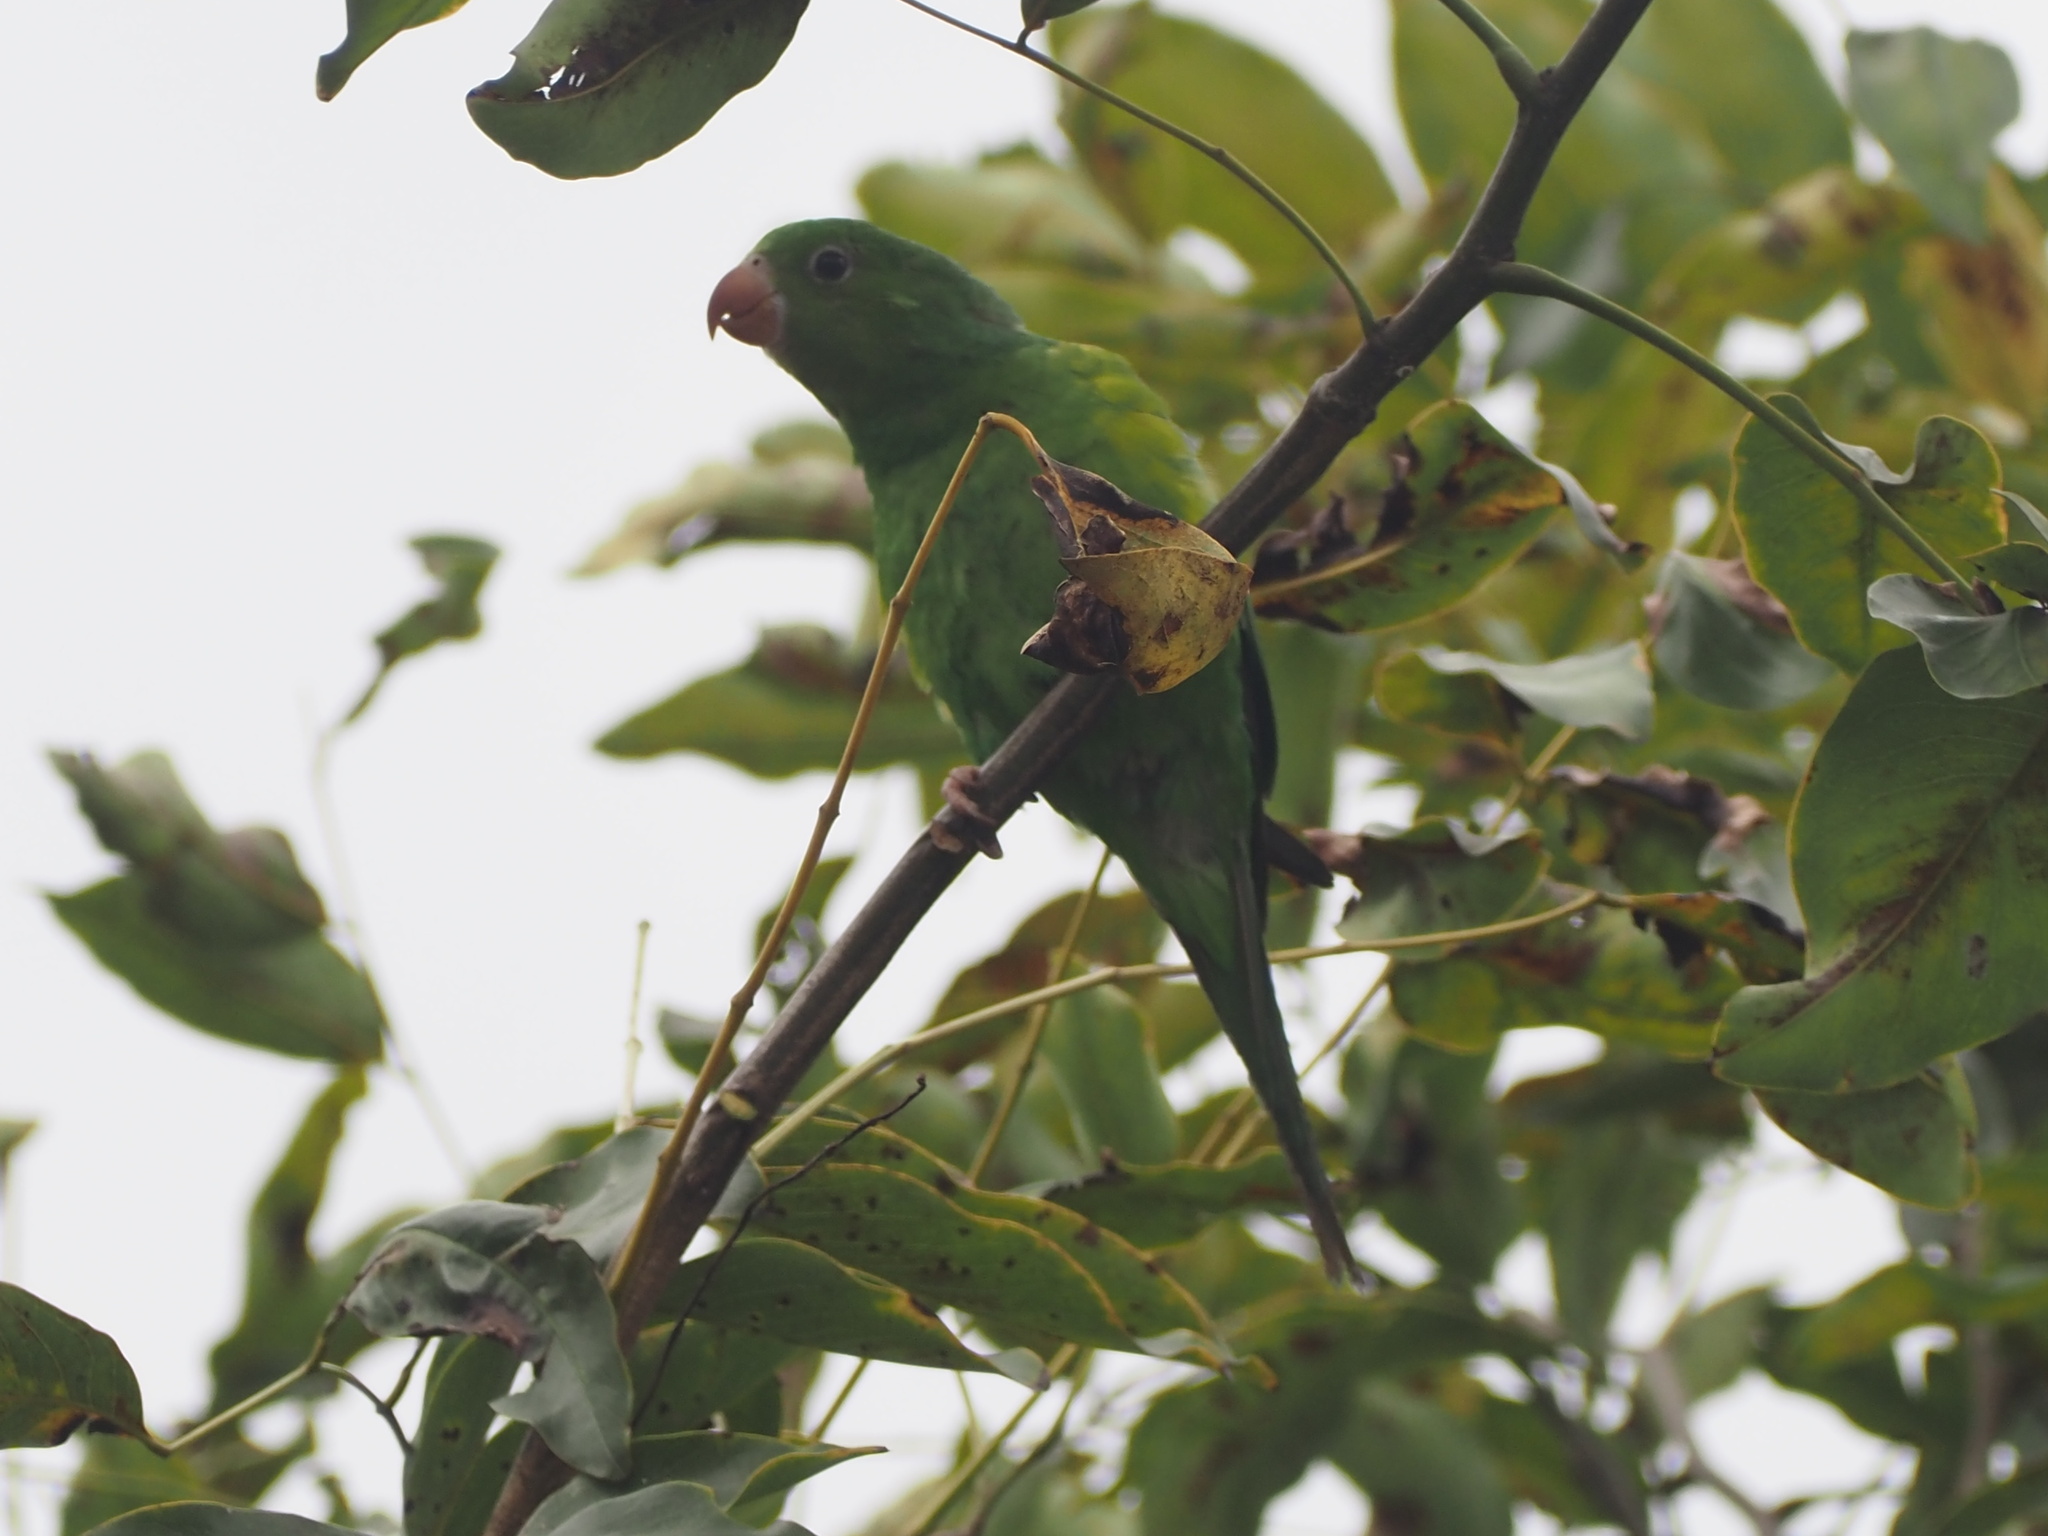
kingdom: Animalia
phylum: Chordata
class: Aves
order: Psittaciformes
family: Psittacidae
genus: Brotogeris
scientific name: Brotogeris tirica
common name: Plain parakeet
